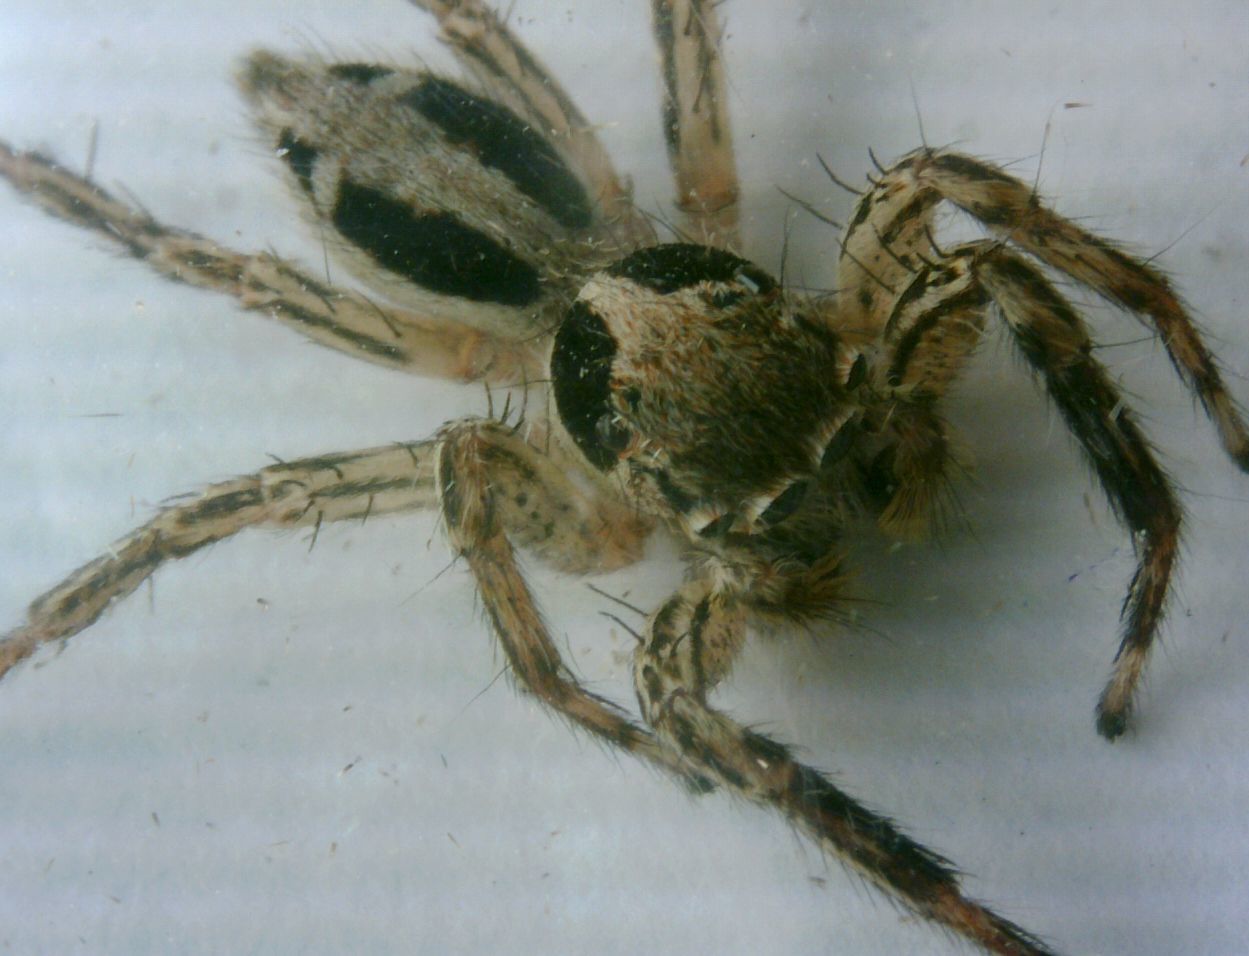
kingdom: Animalia
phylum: Arthropoda
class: Arachnida
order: Araneae
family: Salticidae
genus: Plexippus
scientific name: Plexippus petersi
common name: Jumping spider
